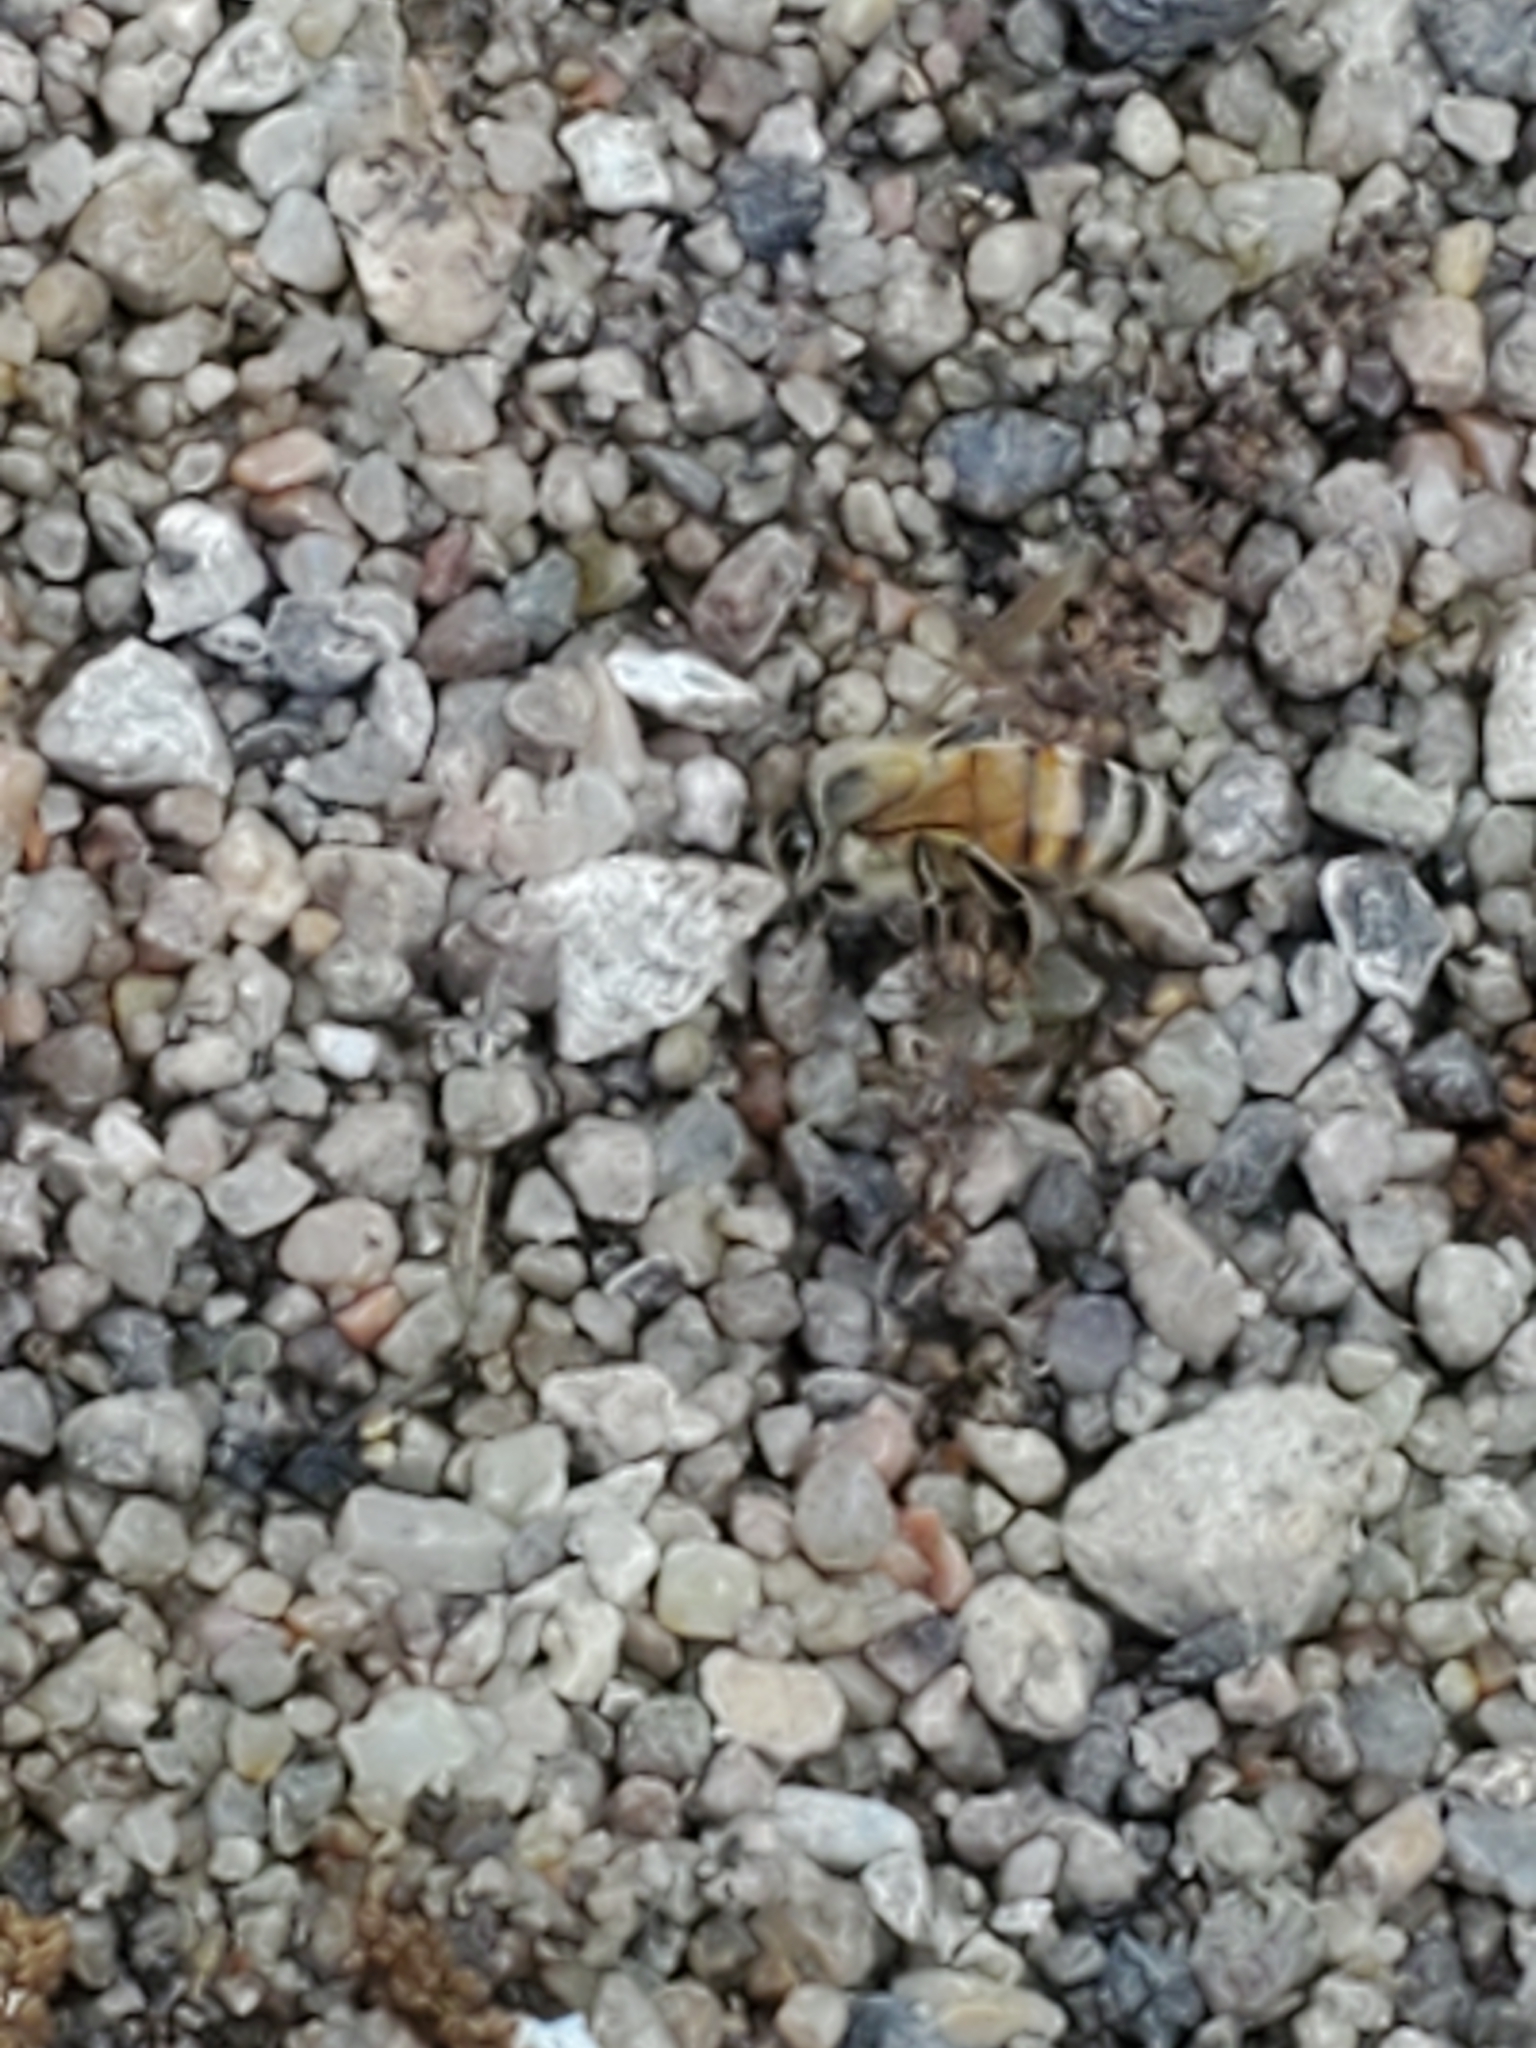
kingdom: Animalia
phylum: Arthropoda
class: Insecta
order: Hymenoptera
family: Apidae
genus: Apis
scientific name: Apis mellifera
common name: Honey bee
